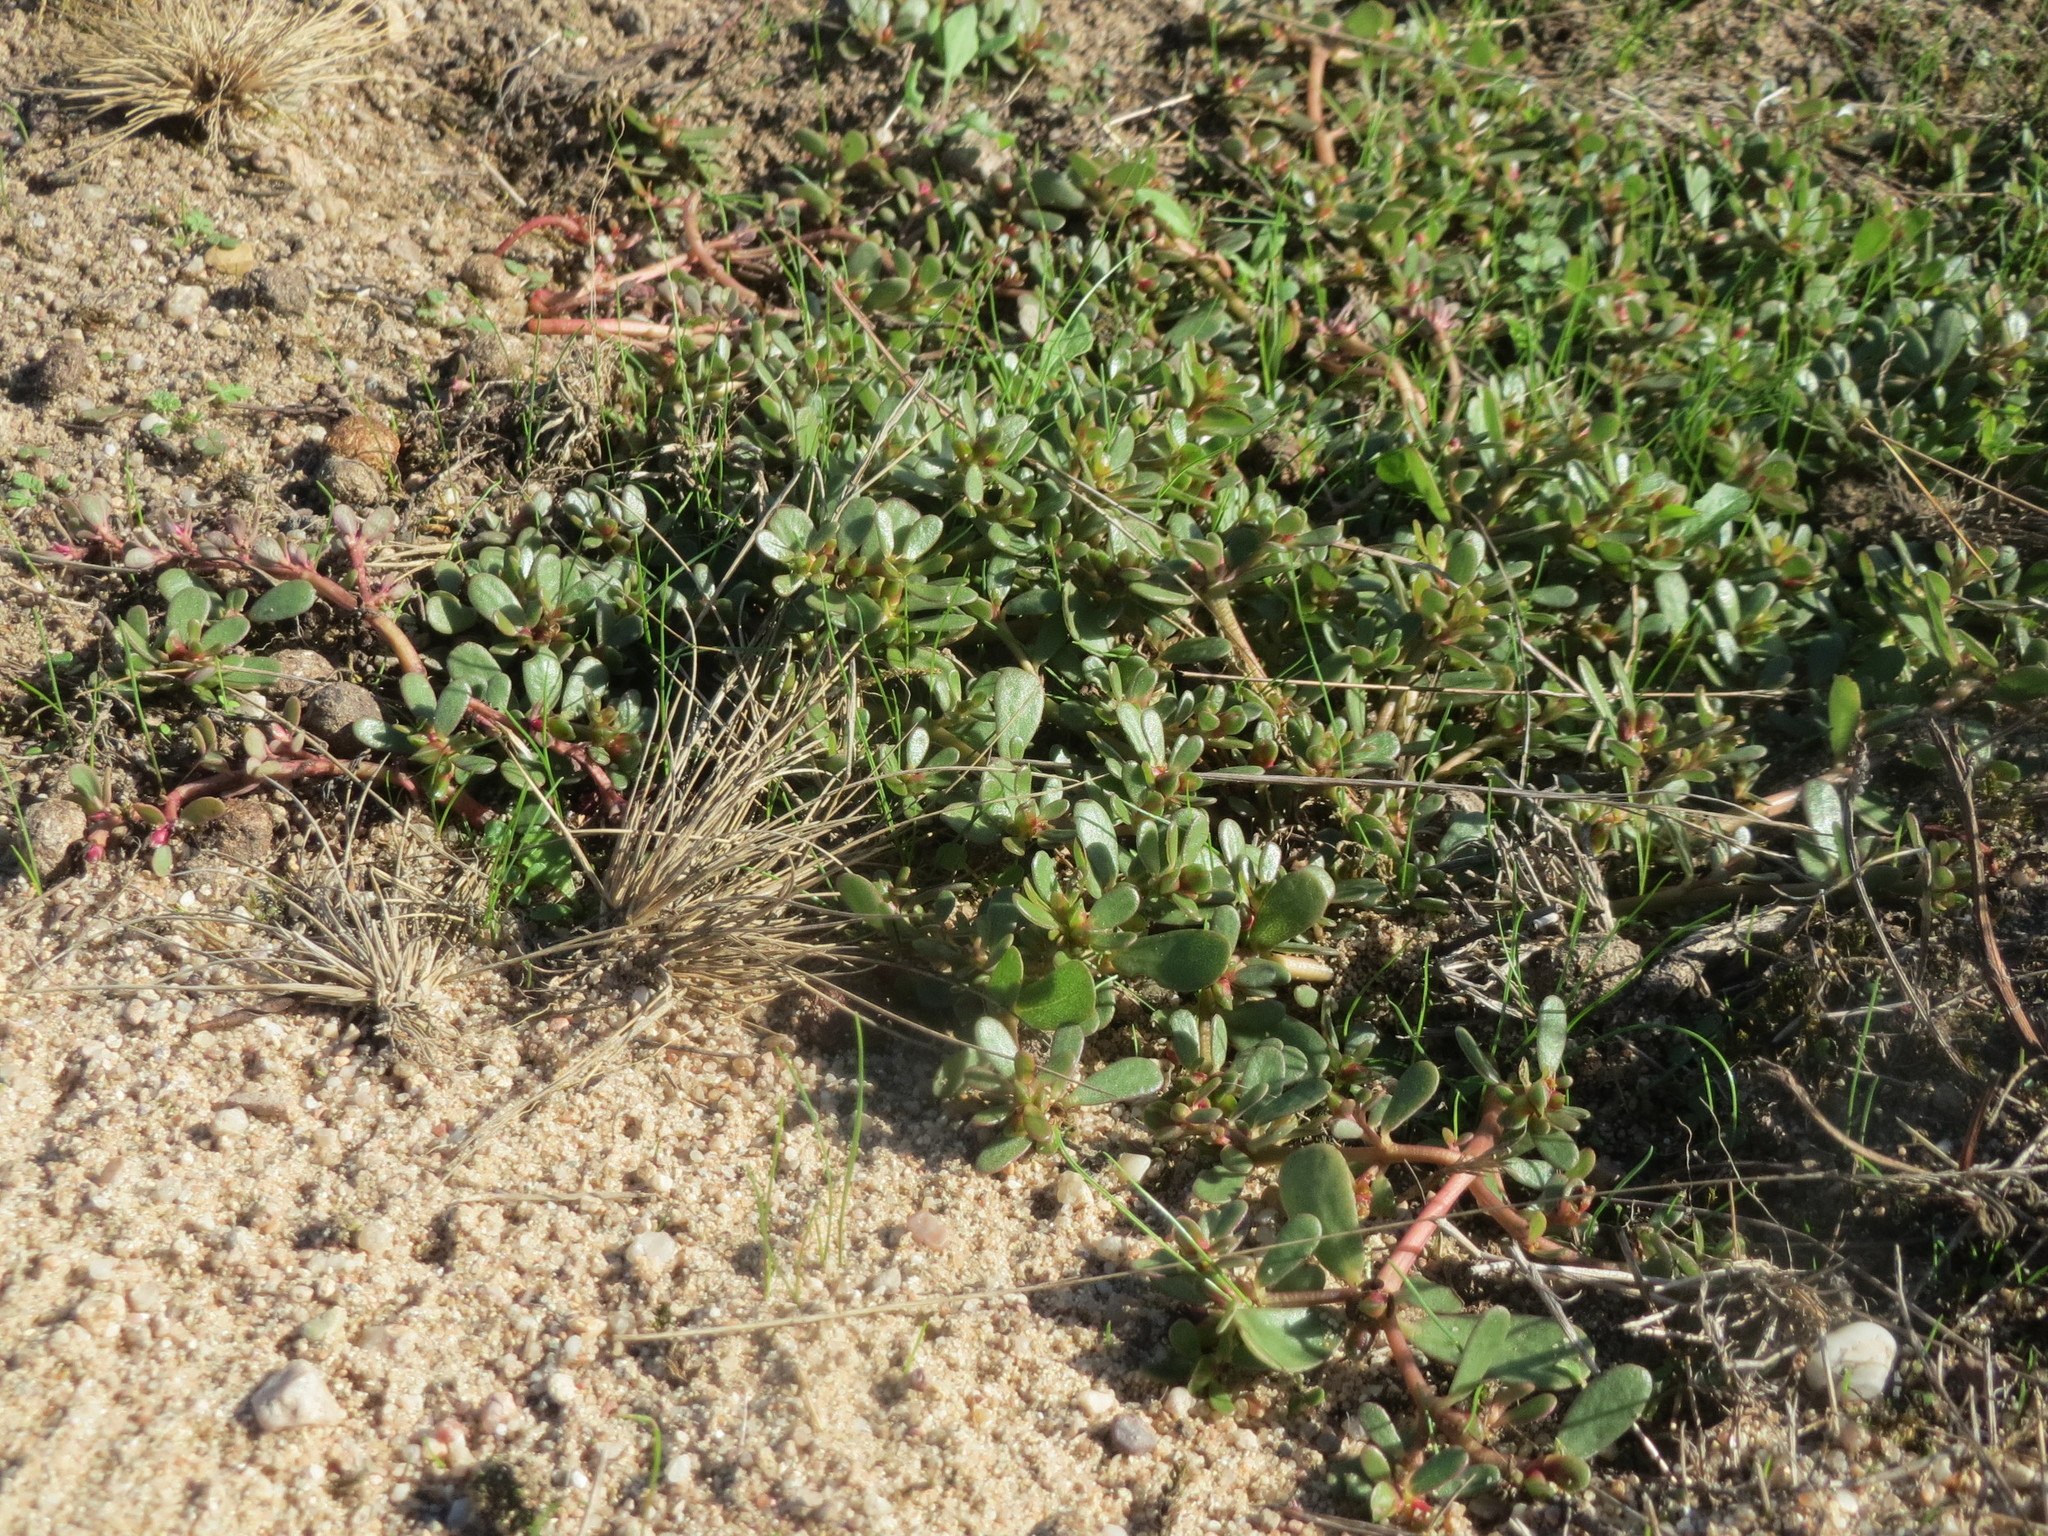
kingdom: Plantae
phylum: Tracheophyta
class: Magnoliopsida
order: Caryophyllales
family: Portulacaceae
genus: Portulaca
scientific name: Portulaca oleracea
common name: Common purslane
